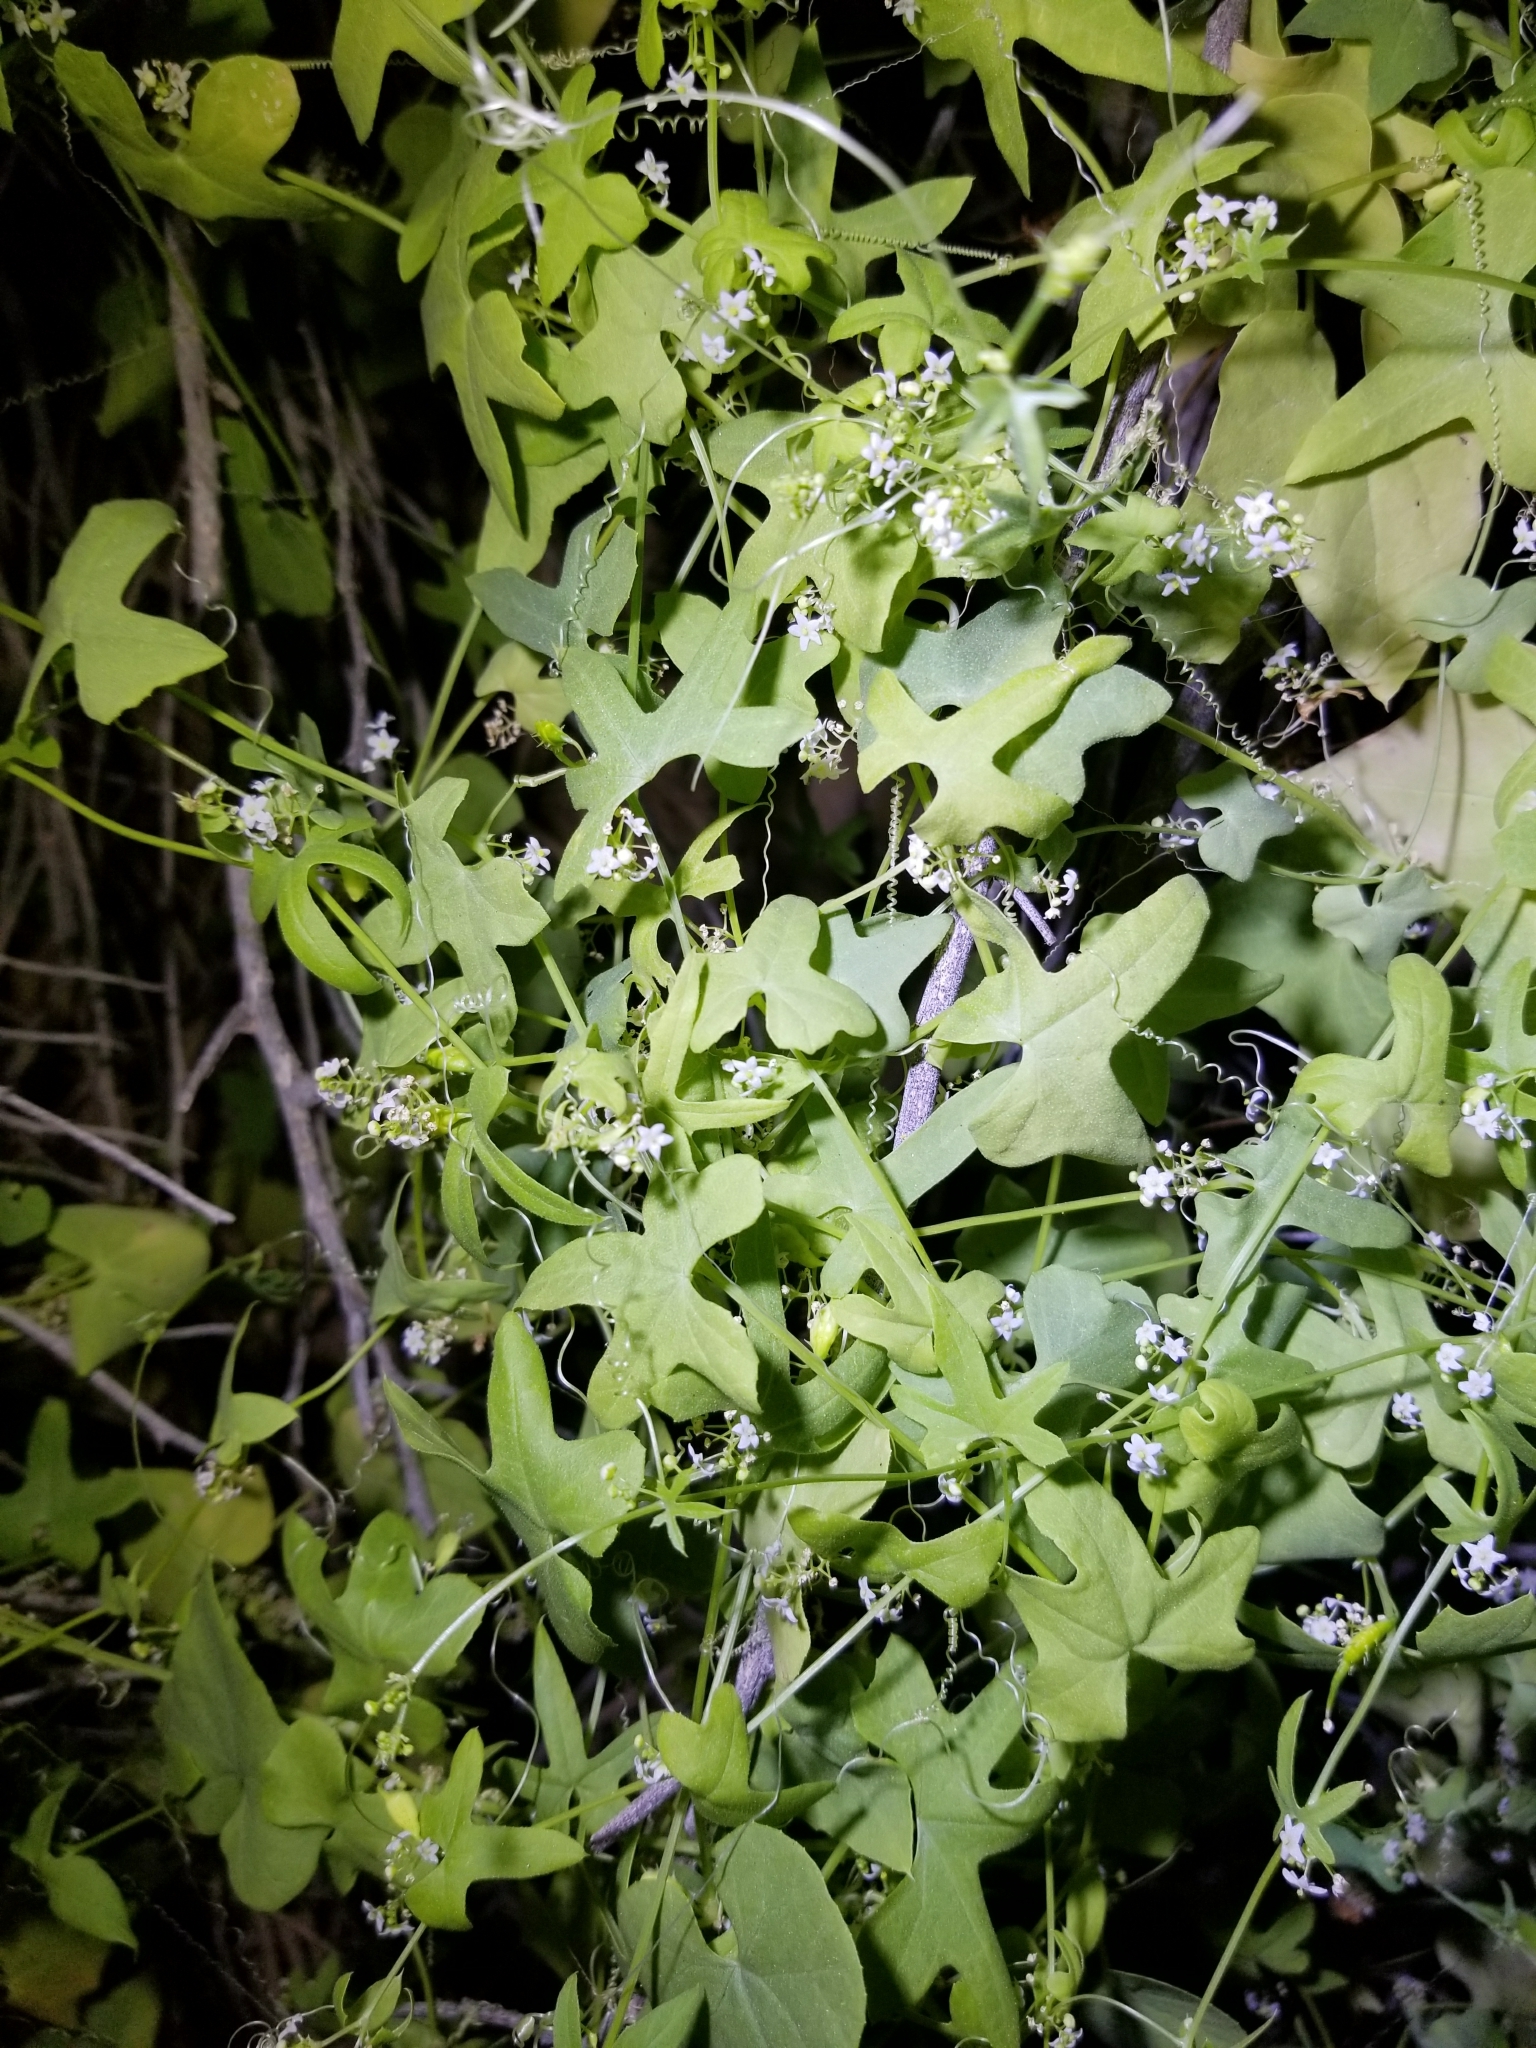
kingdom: Plantae
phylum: Tracheophyta
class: Magnoliopsida
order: Cucurbitales
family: Cucurbitaceae
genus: Echinopepon
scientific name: Echinopepon bigelovii
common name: Desert starvine
